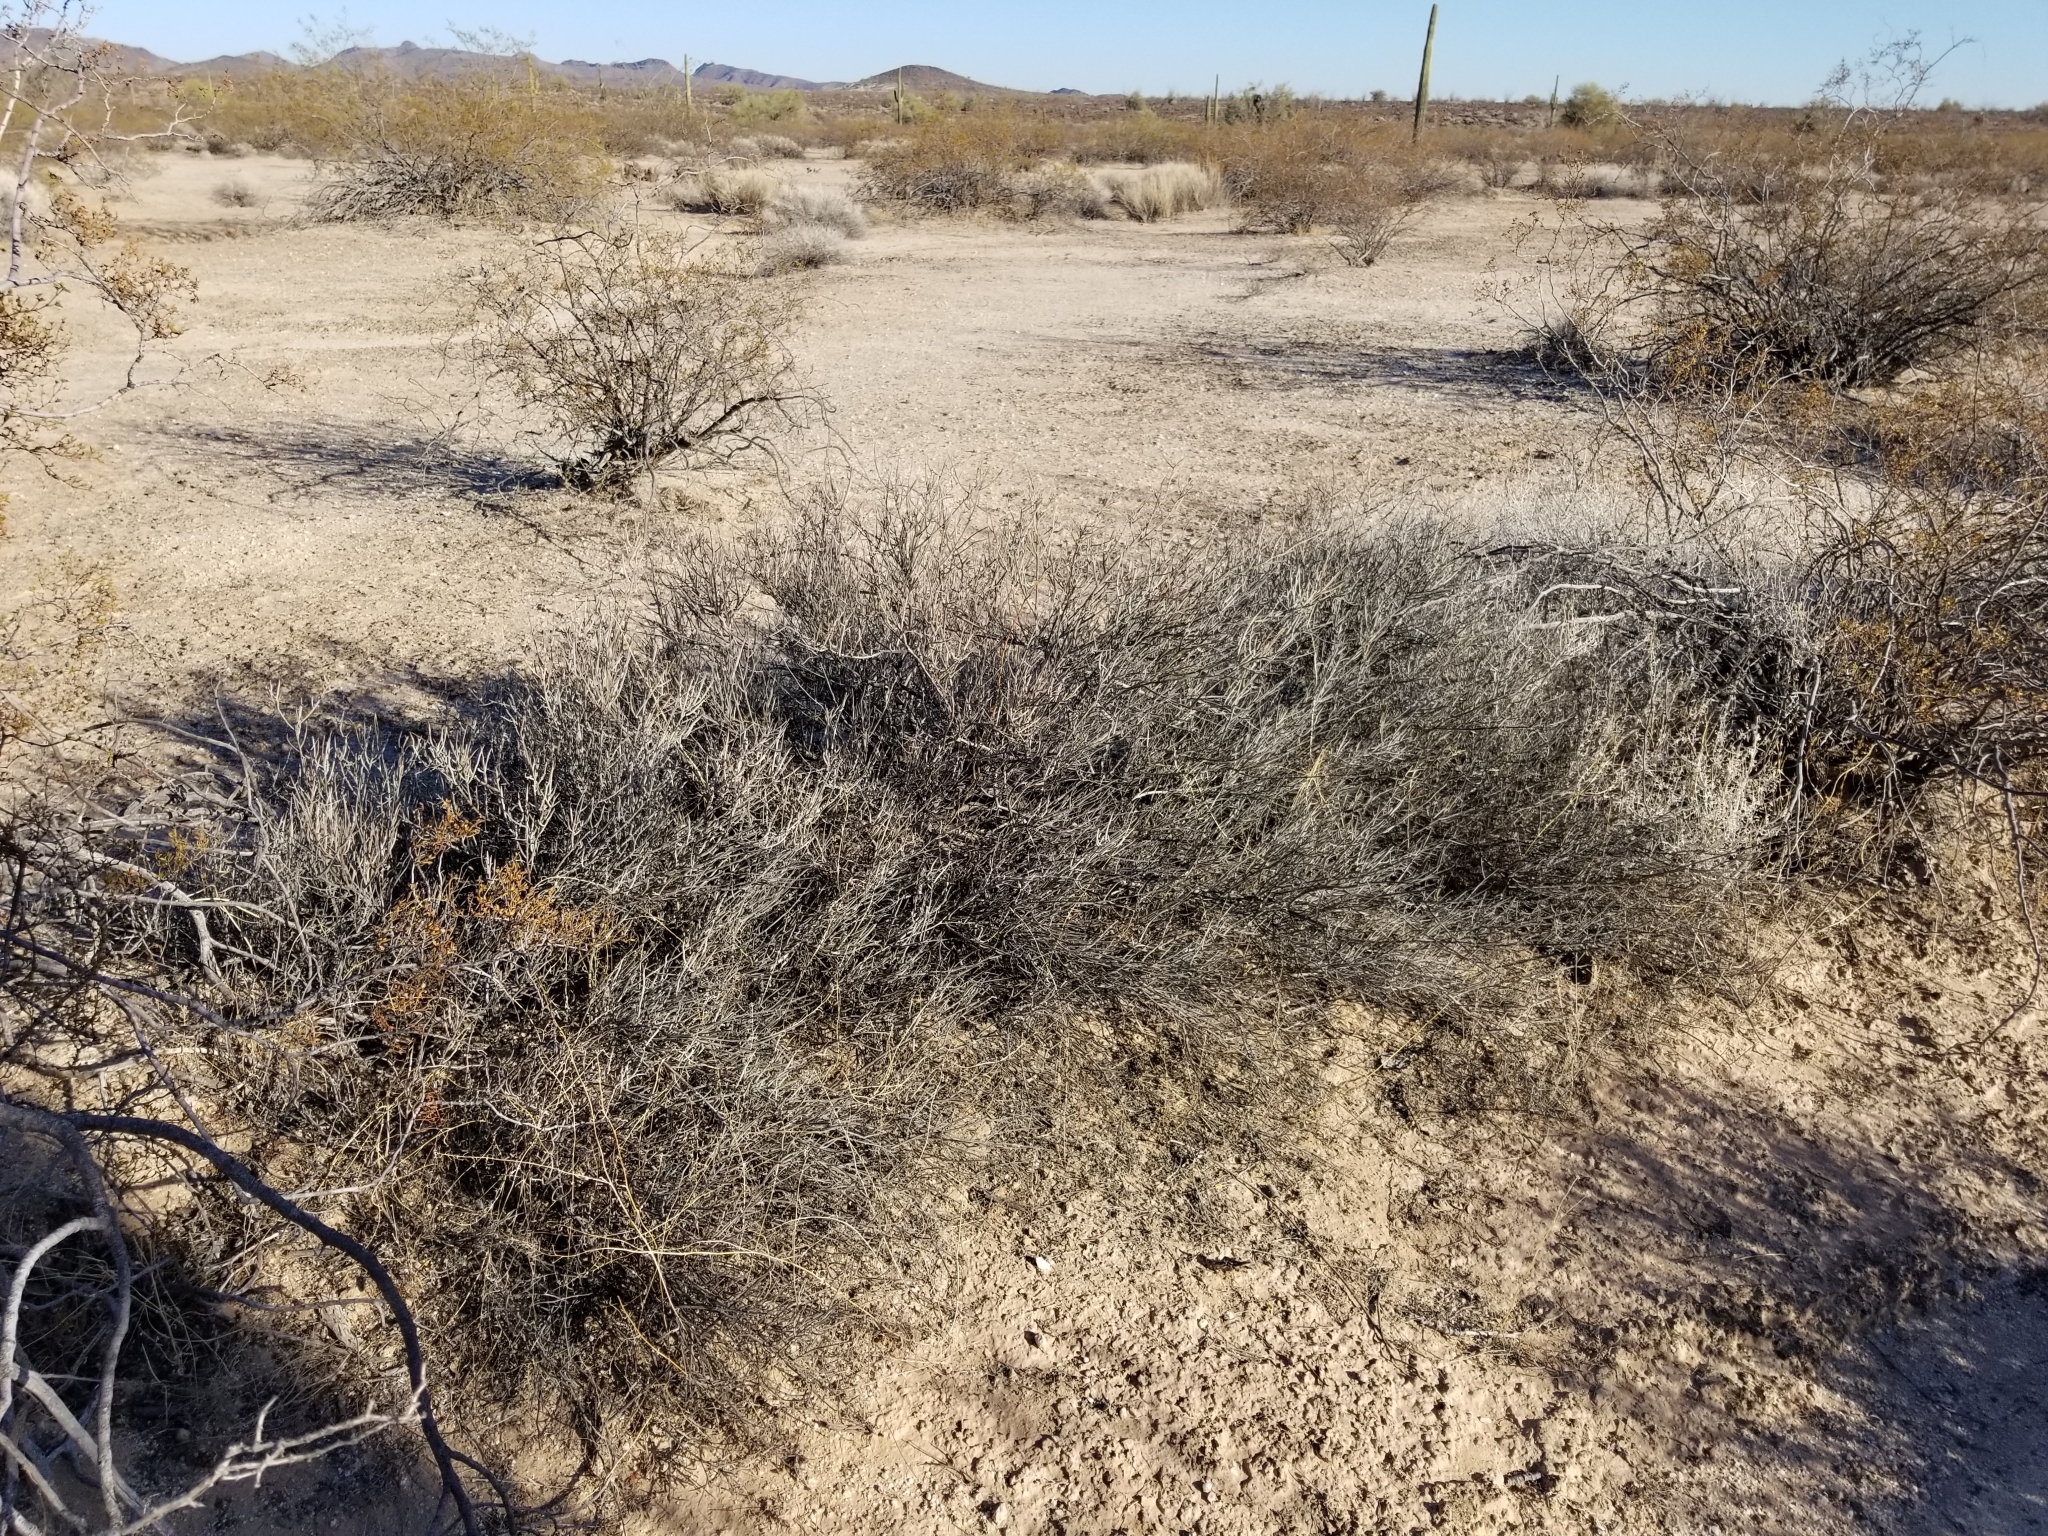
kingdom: Plantae
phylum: Tracheophyta
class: Magnoliopsida
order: Zygophyllales
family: Krameriaceae
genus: Krameria
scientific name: Krameria bicolor
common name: White ratany
